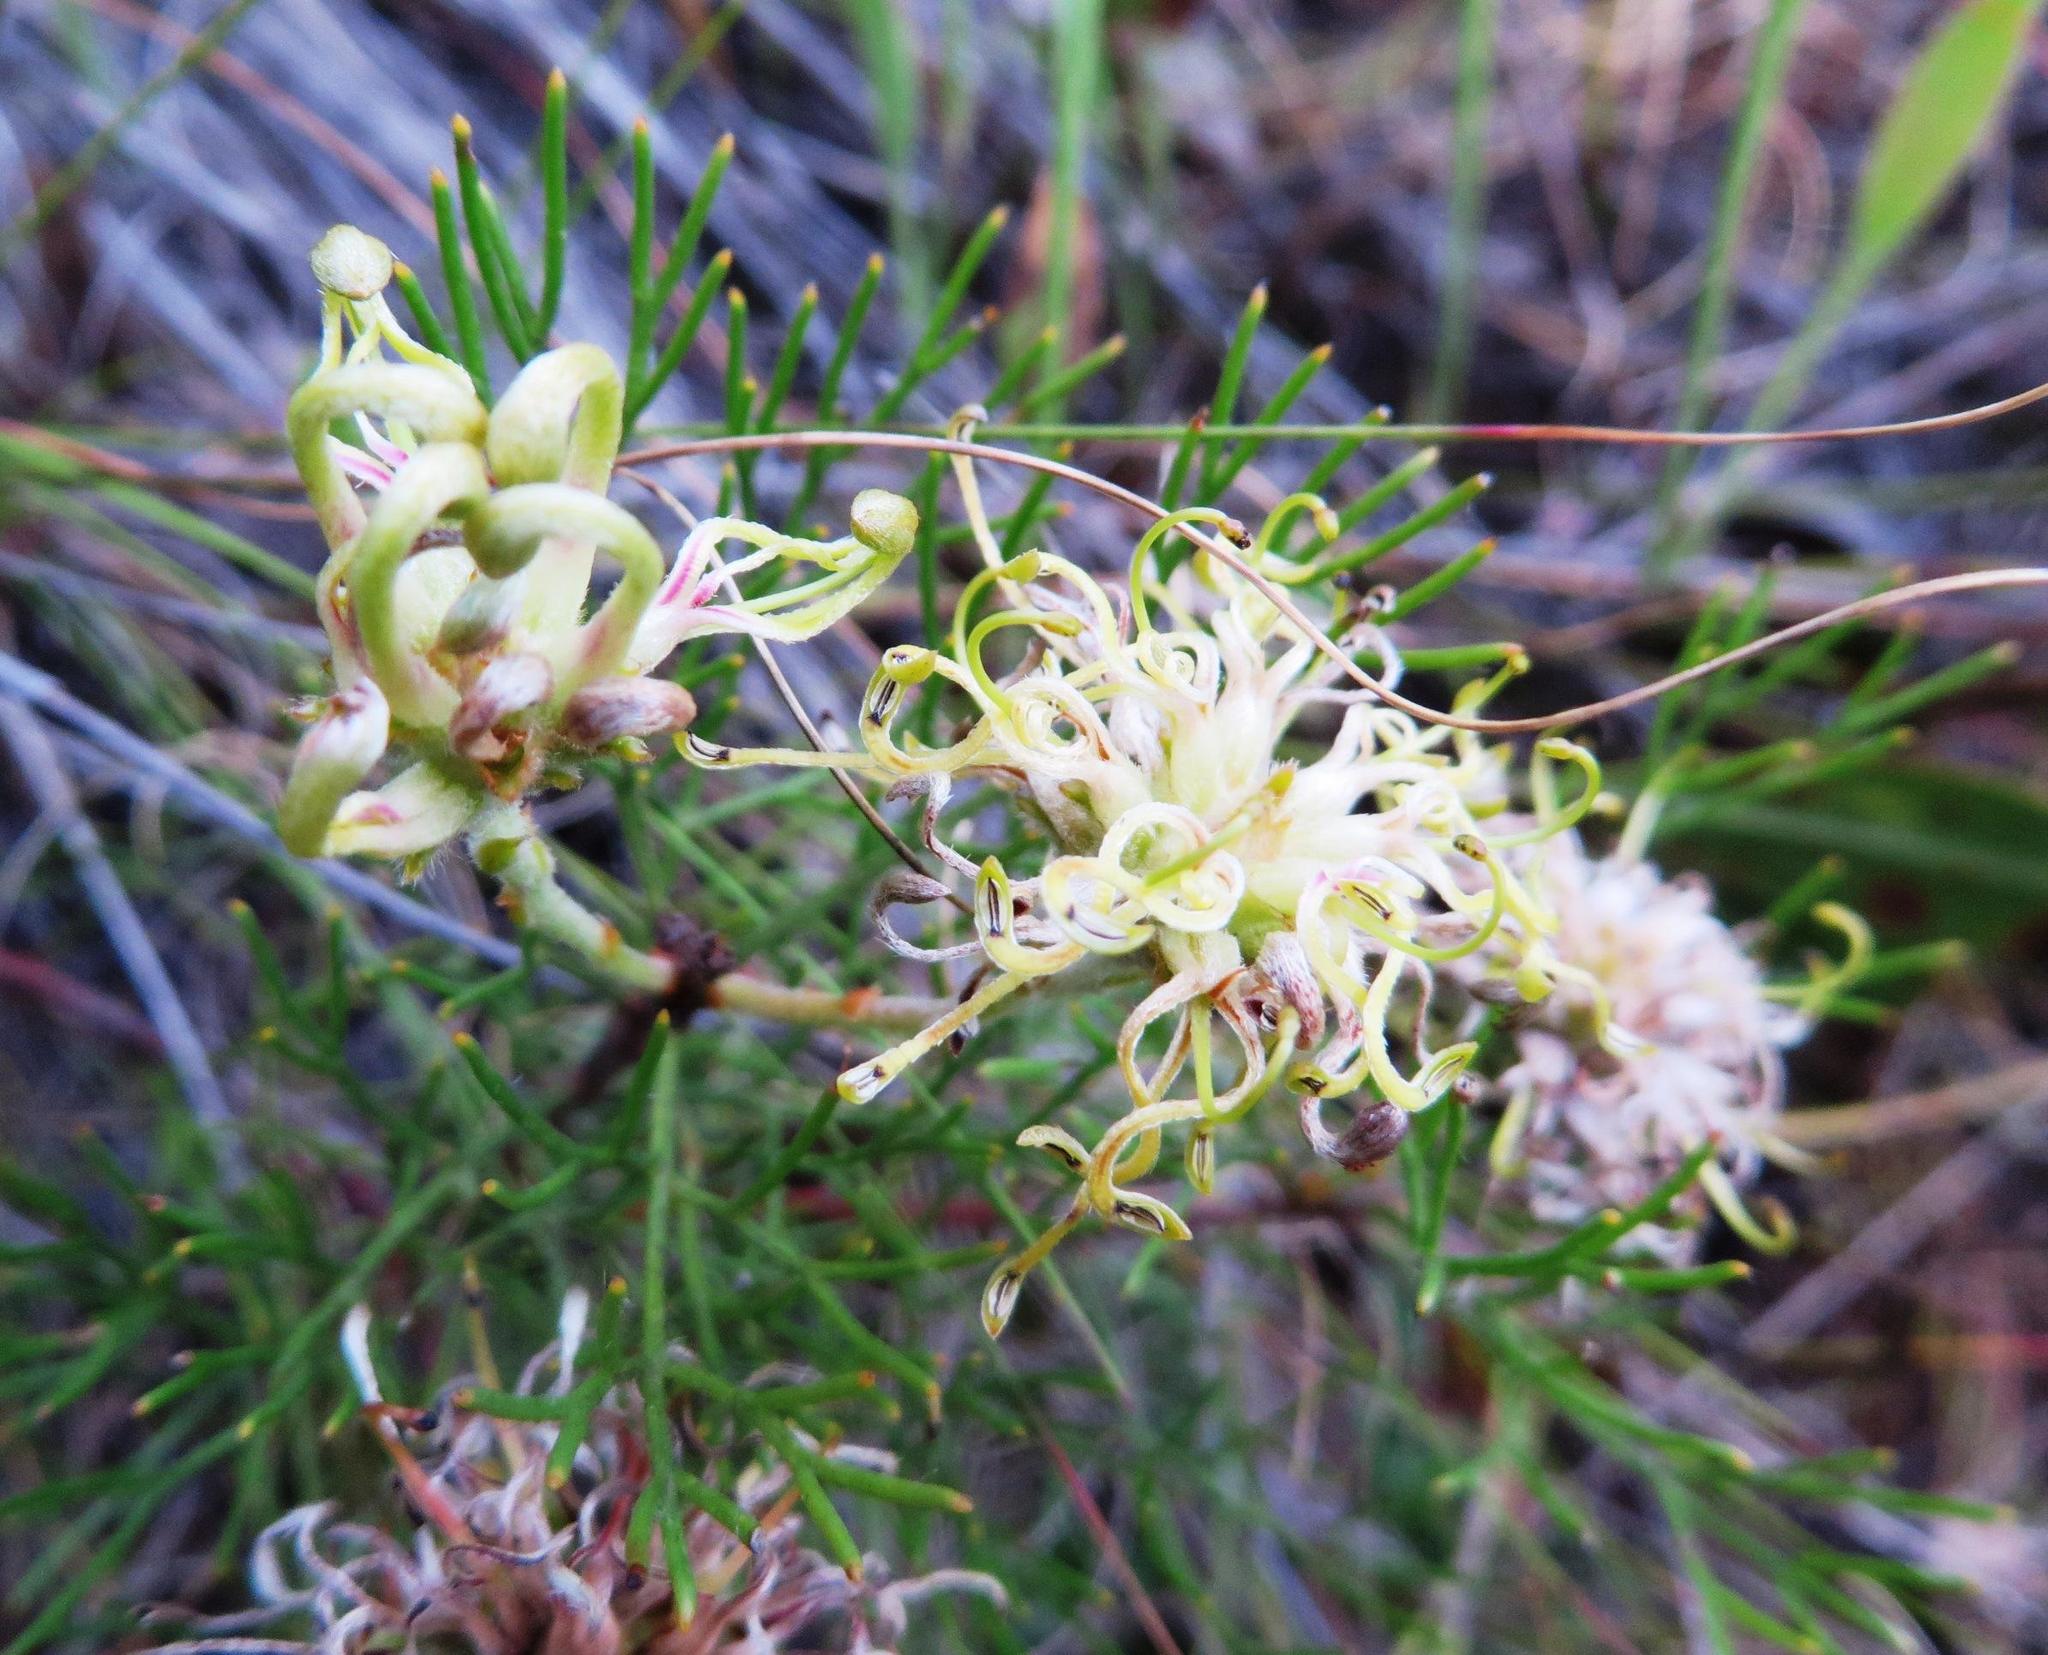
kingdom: Plantae
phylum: Tracheophyta
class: Magnoliopsida
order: Proteales
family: Proteaceae
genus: Serruria
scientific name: Serruria gremialis
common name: Riviersonderend spiderhead
